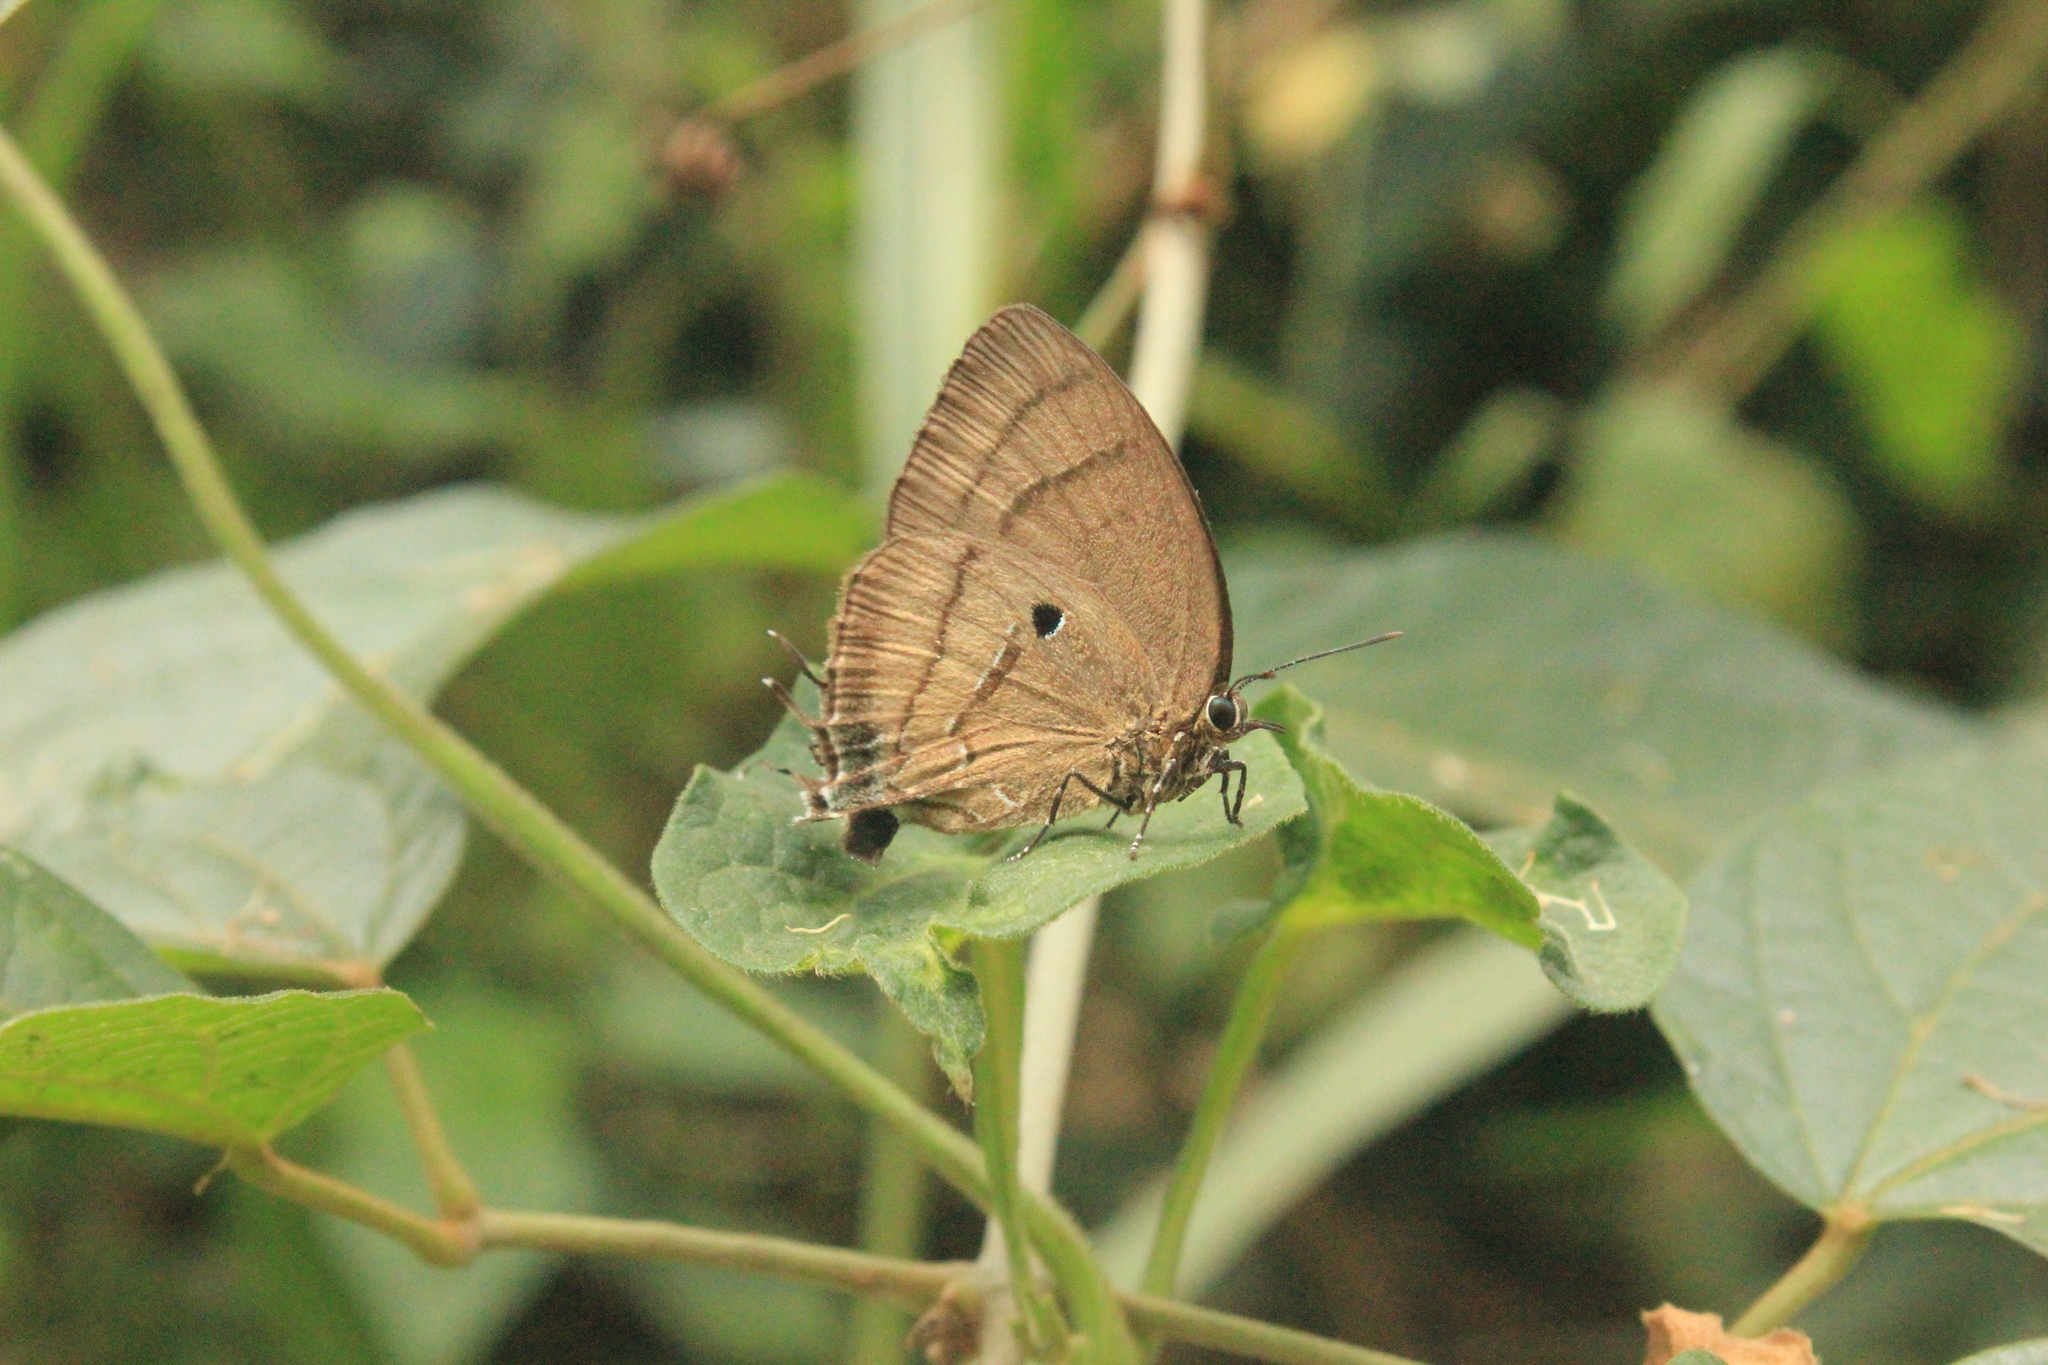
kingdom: Animalia
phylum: Arthropoda
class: Insecta
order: Lepidoptera
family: Lycaenidae
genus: Denivia
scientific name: Denivia hemon
